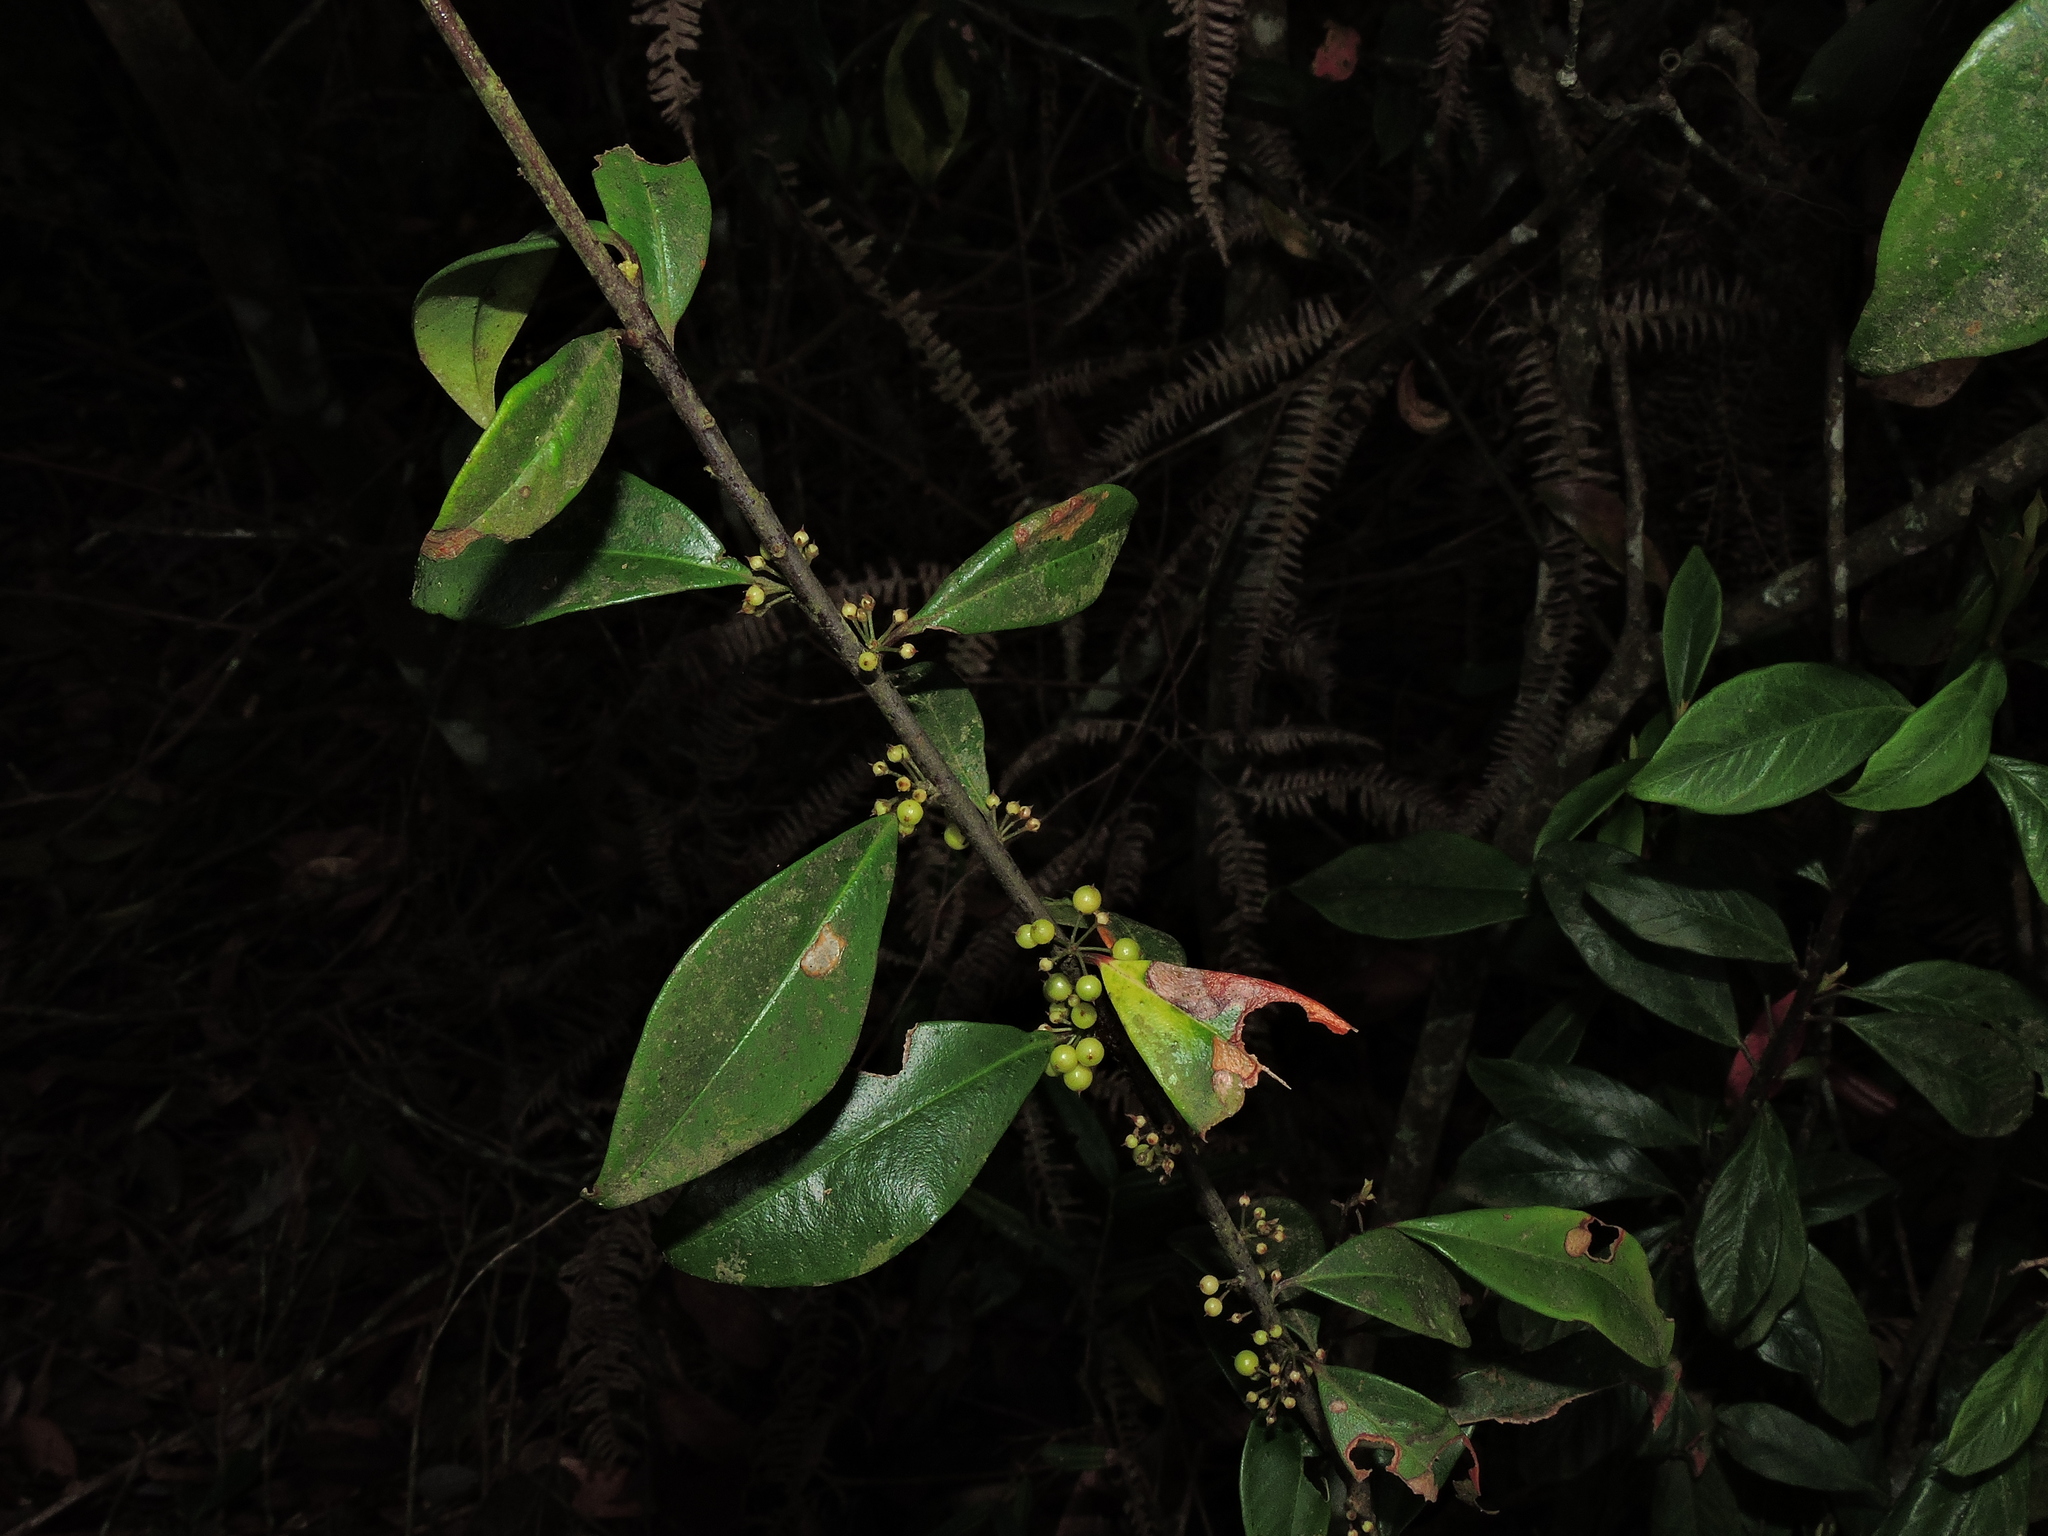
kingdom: Plantae
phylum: Tracheophyta
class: Magnoliopsida
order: Ericales
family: Primulaceae
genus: Myrsine
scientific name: Myrsine stolonifera
